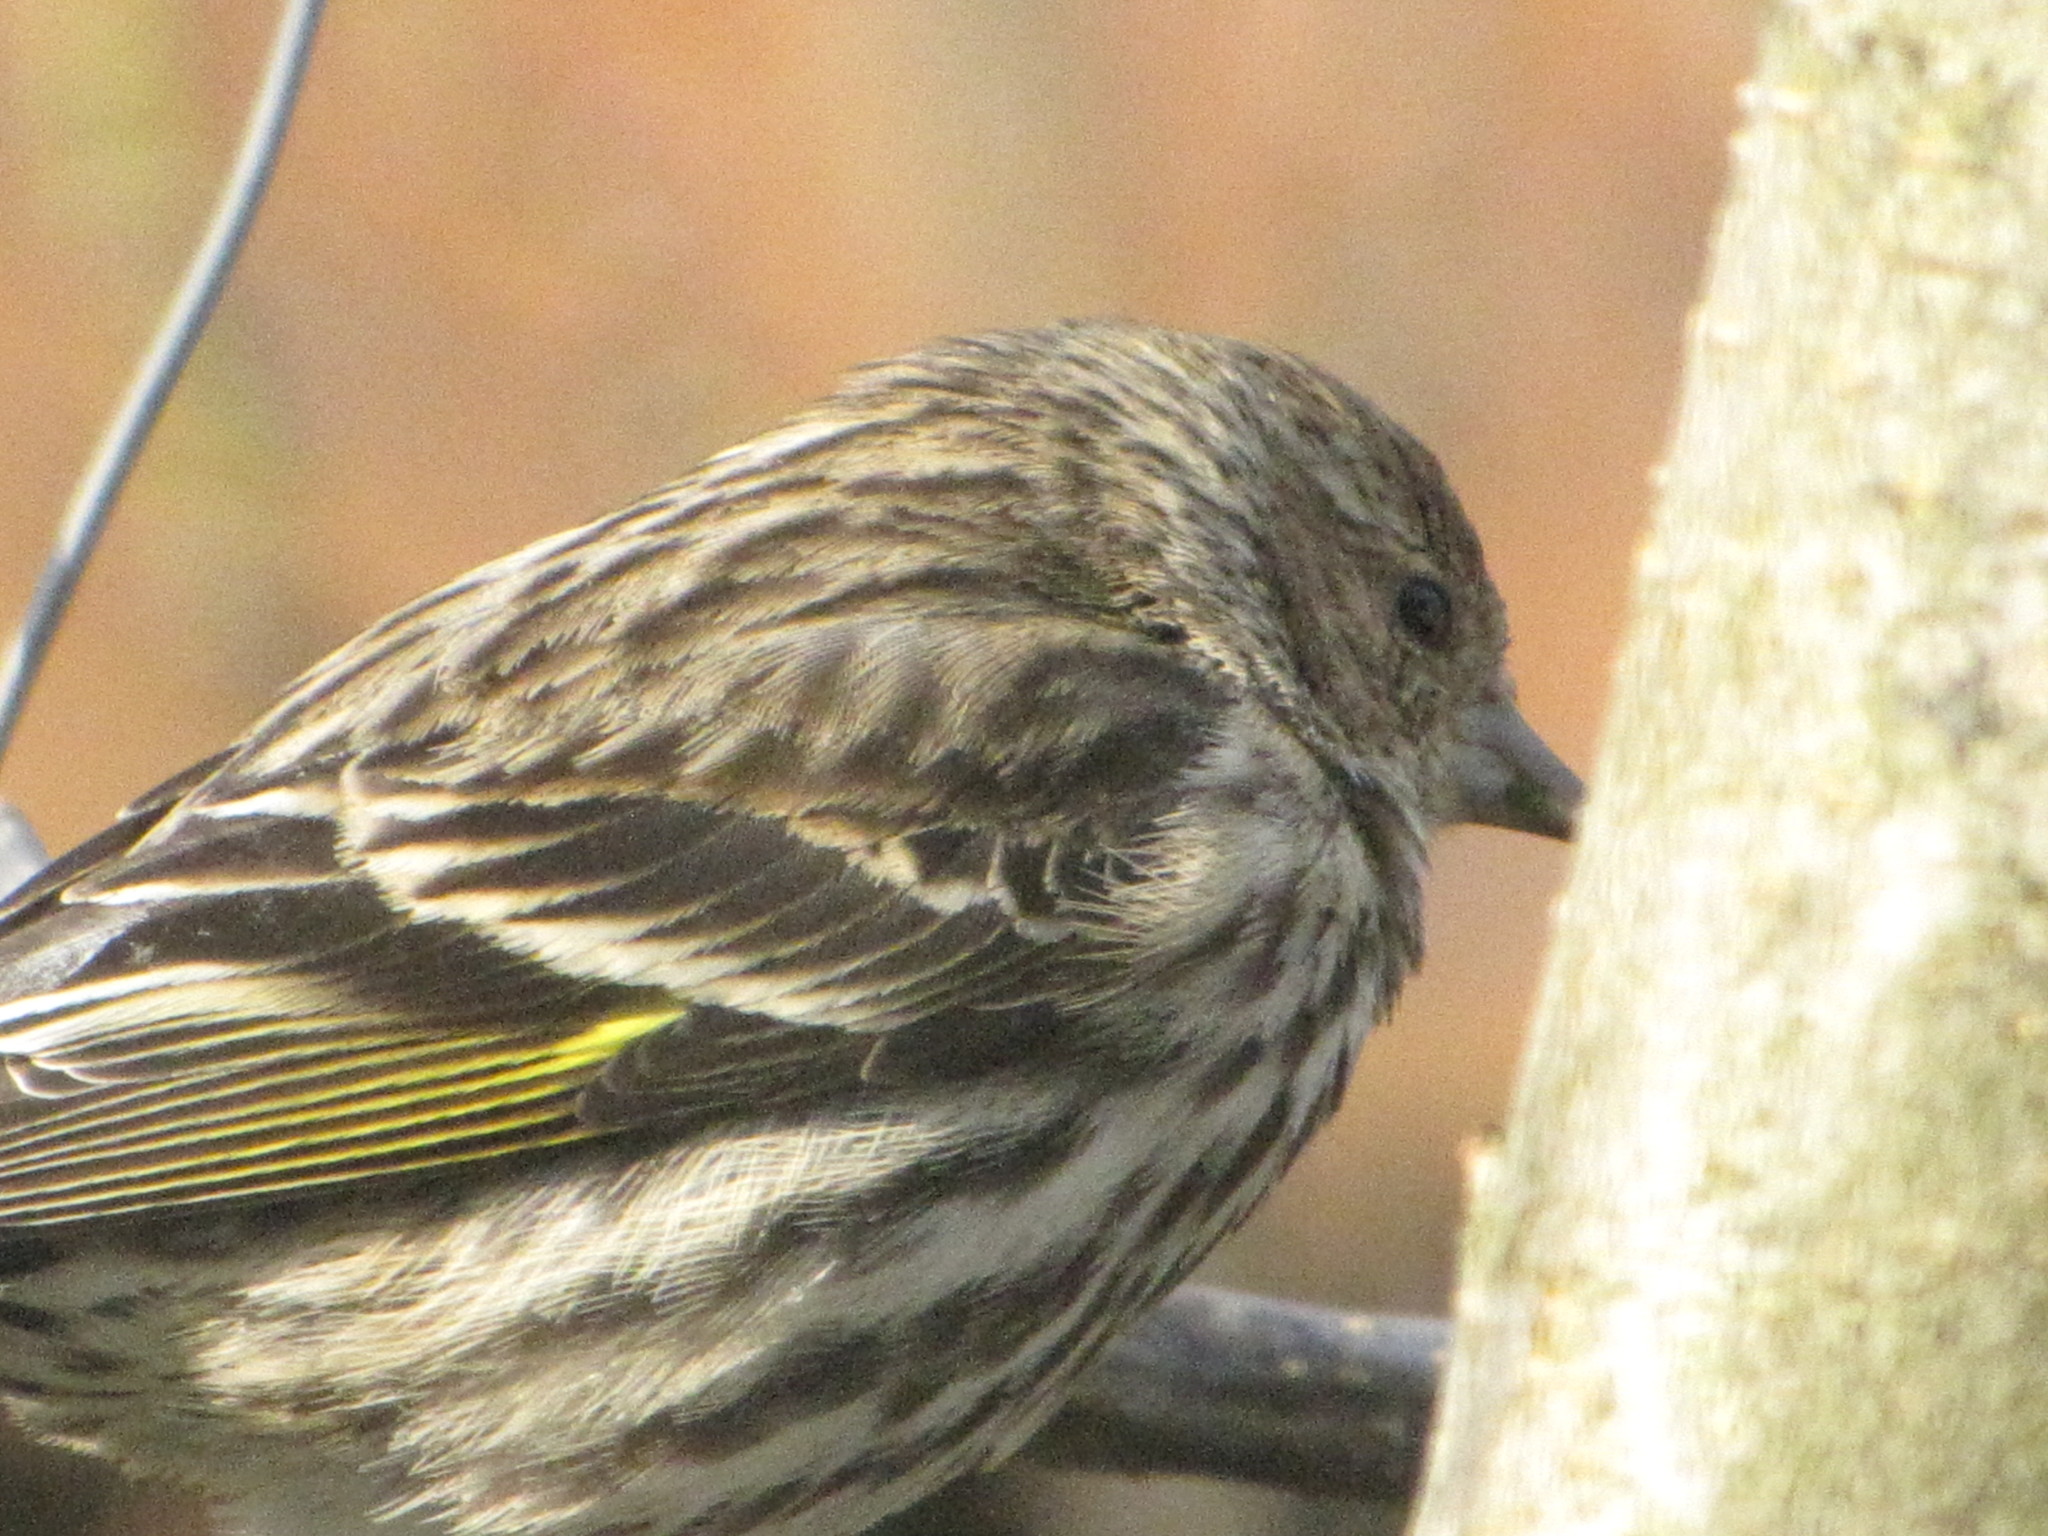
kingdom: Animalia
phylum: Chordata
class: Aves
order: Passeriformes
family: Fringillidae
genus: Spinus
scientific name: Spinus pinus
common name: Pine siskin
